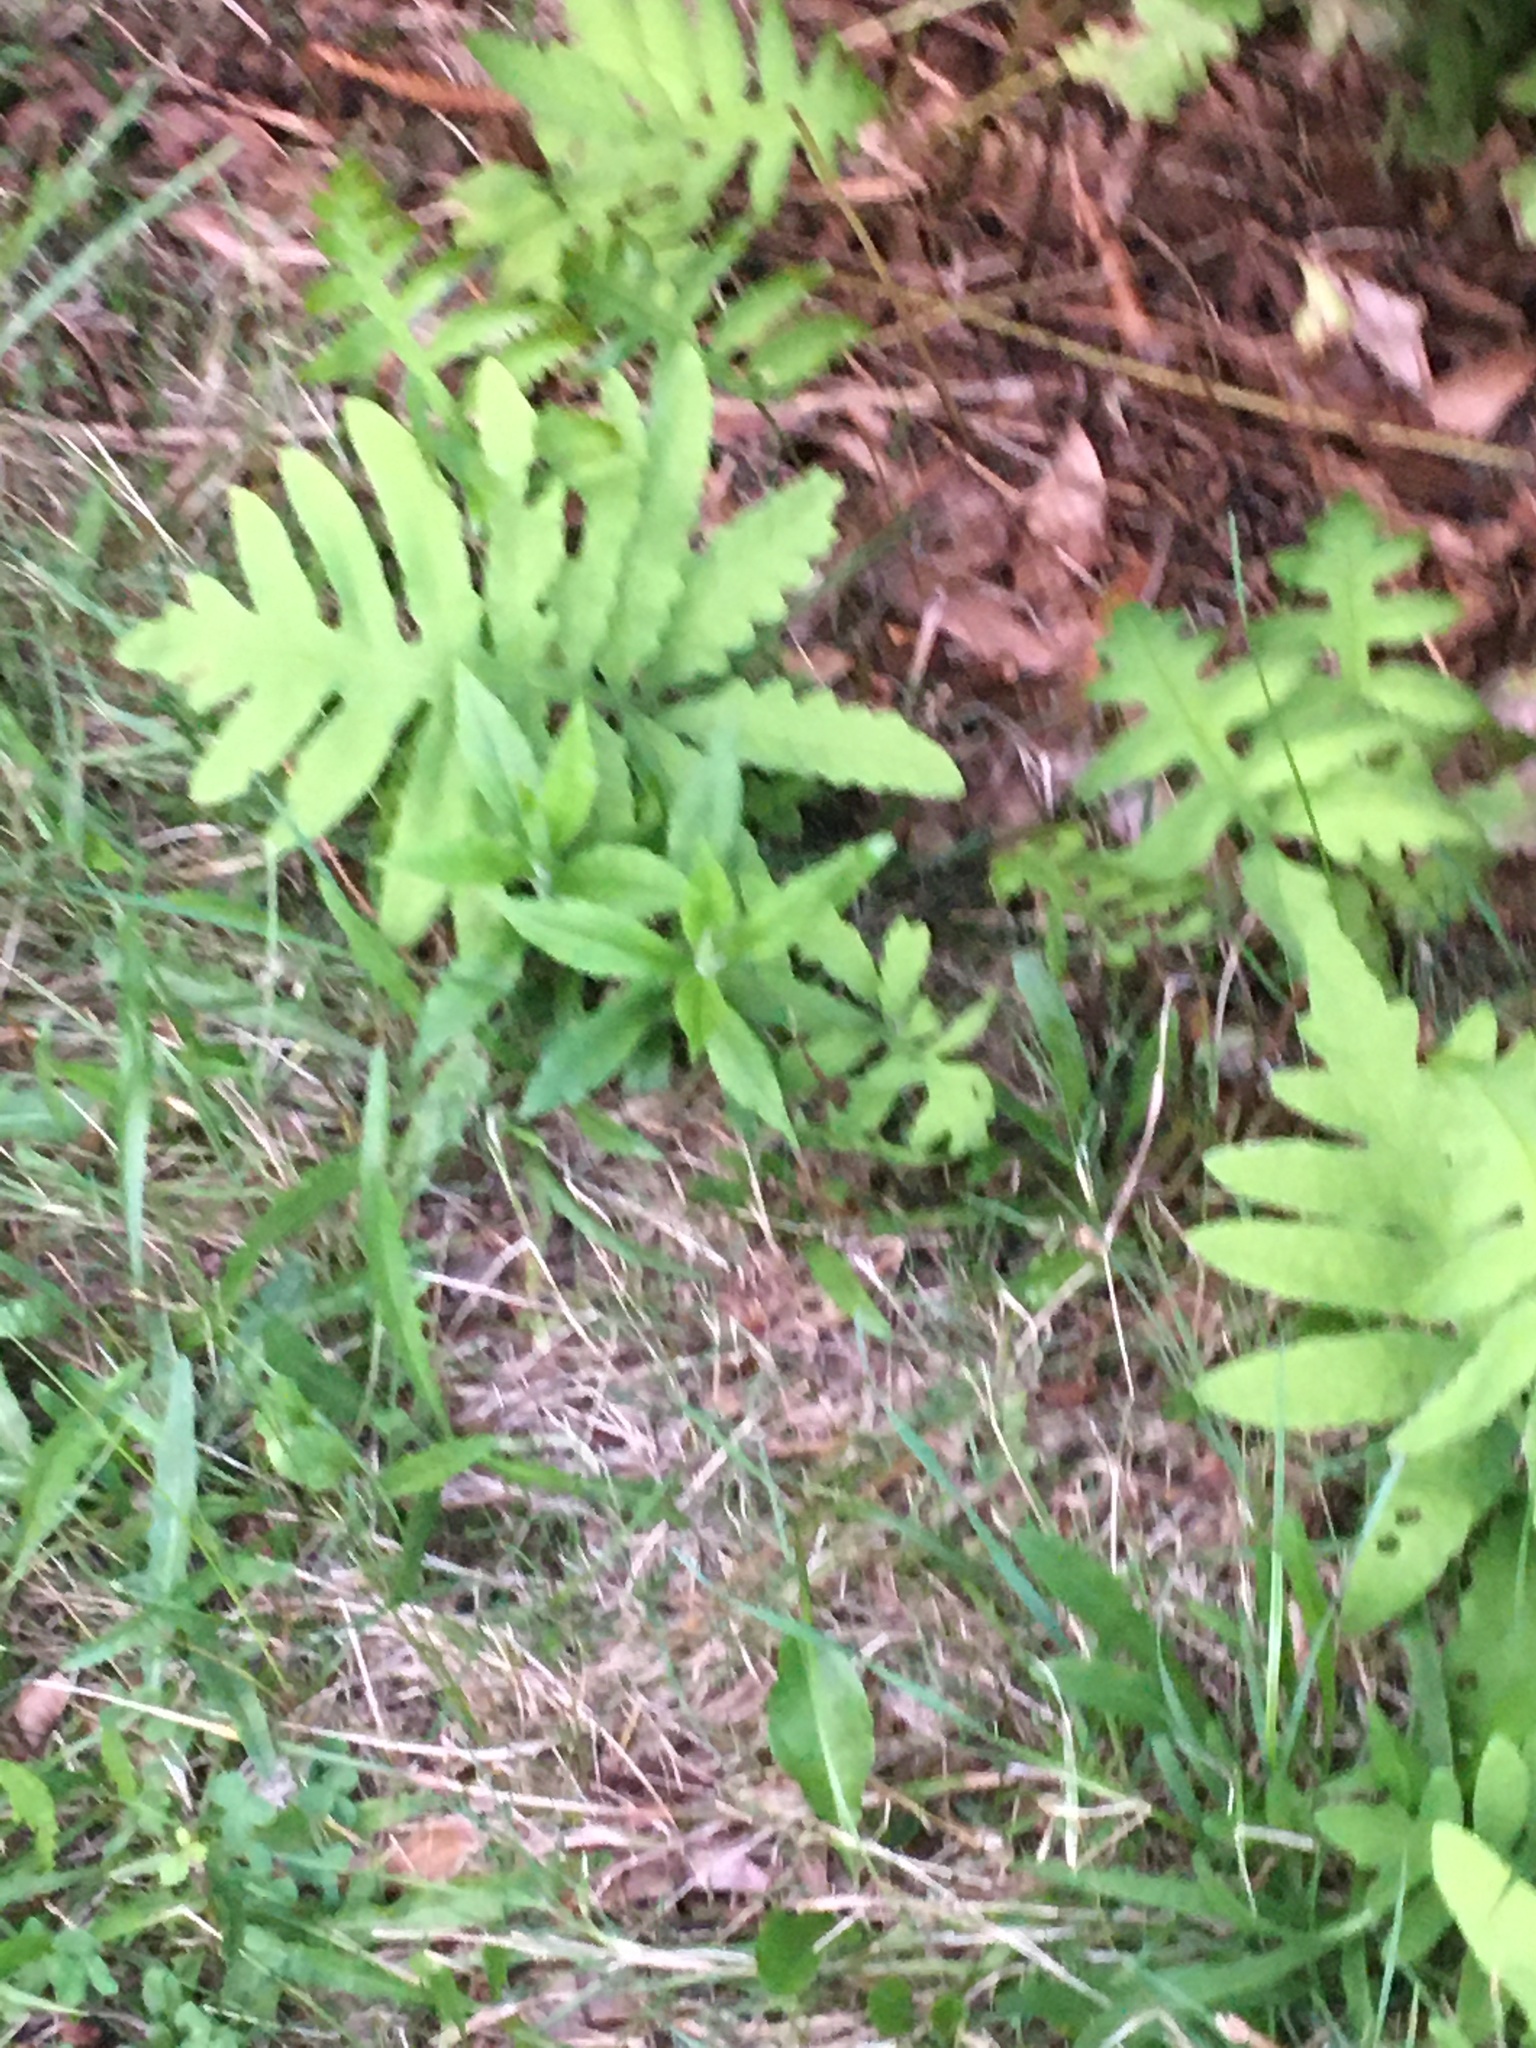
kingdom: Plantae
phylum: Tracheophyta
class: Polypodiopsida
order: Polypodiales
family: Onocleaceae
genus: Onoclea
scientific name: Onoclea sensibilis
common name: Sensitive fern
